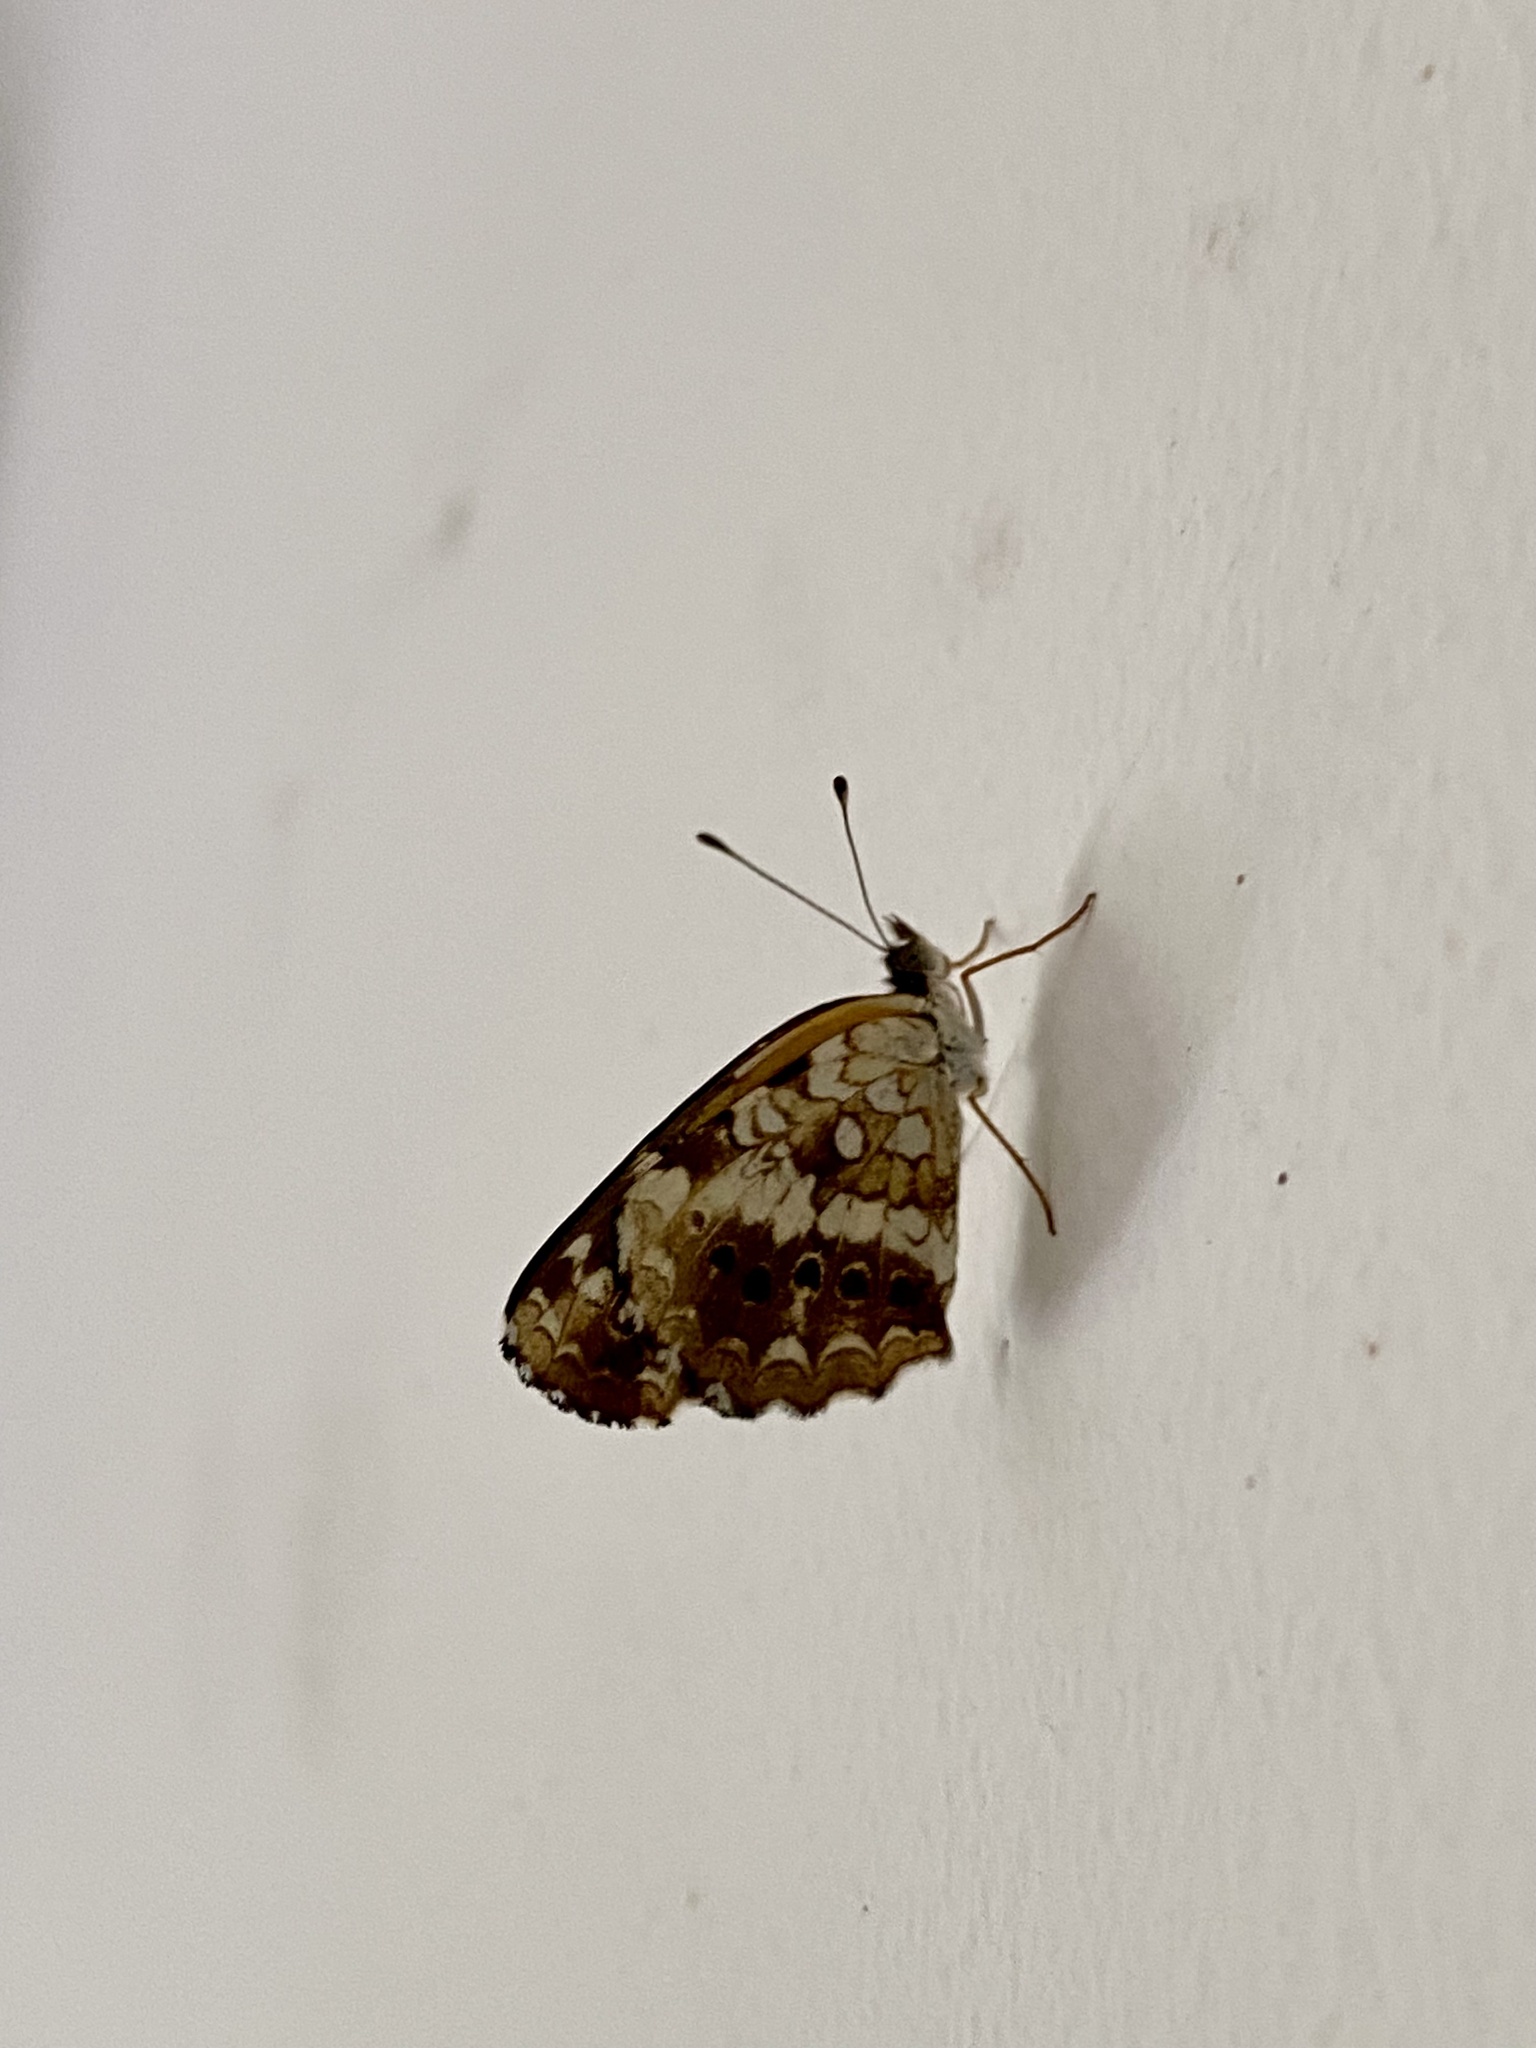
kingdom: Animalia
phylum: Arthropoda
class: Insecta
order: Lepidoptera
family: Nymphalidae
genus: Ortilia
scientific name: Ortilia ithra
